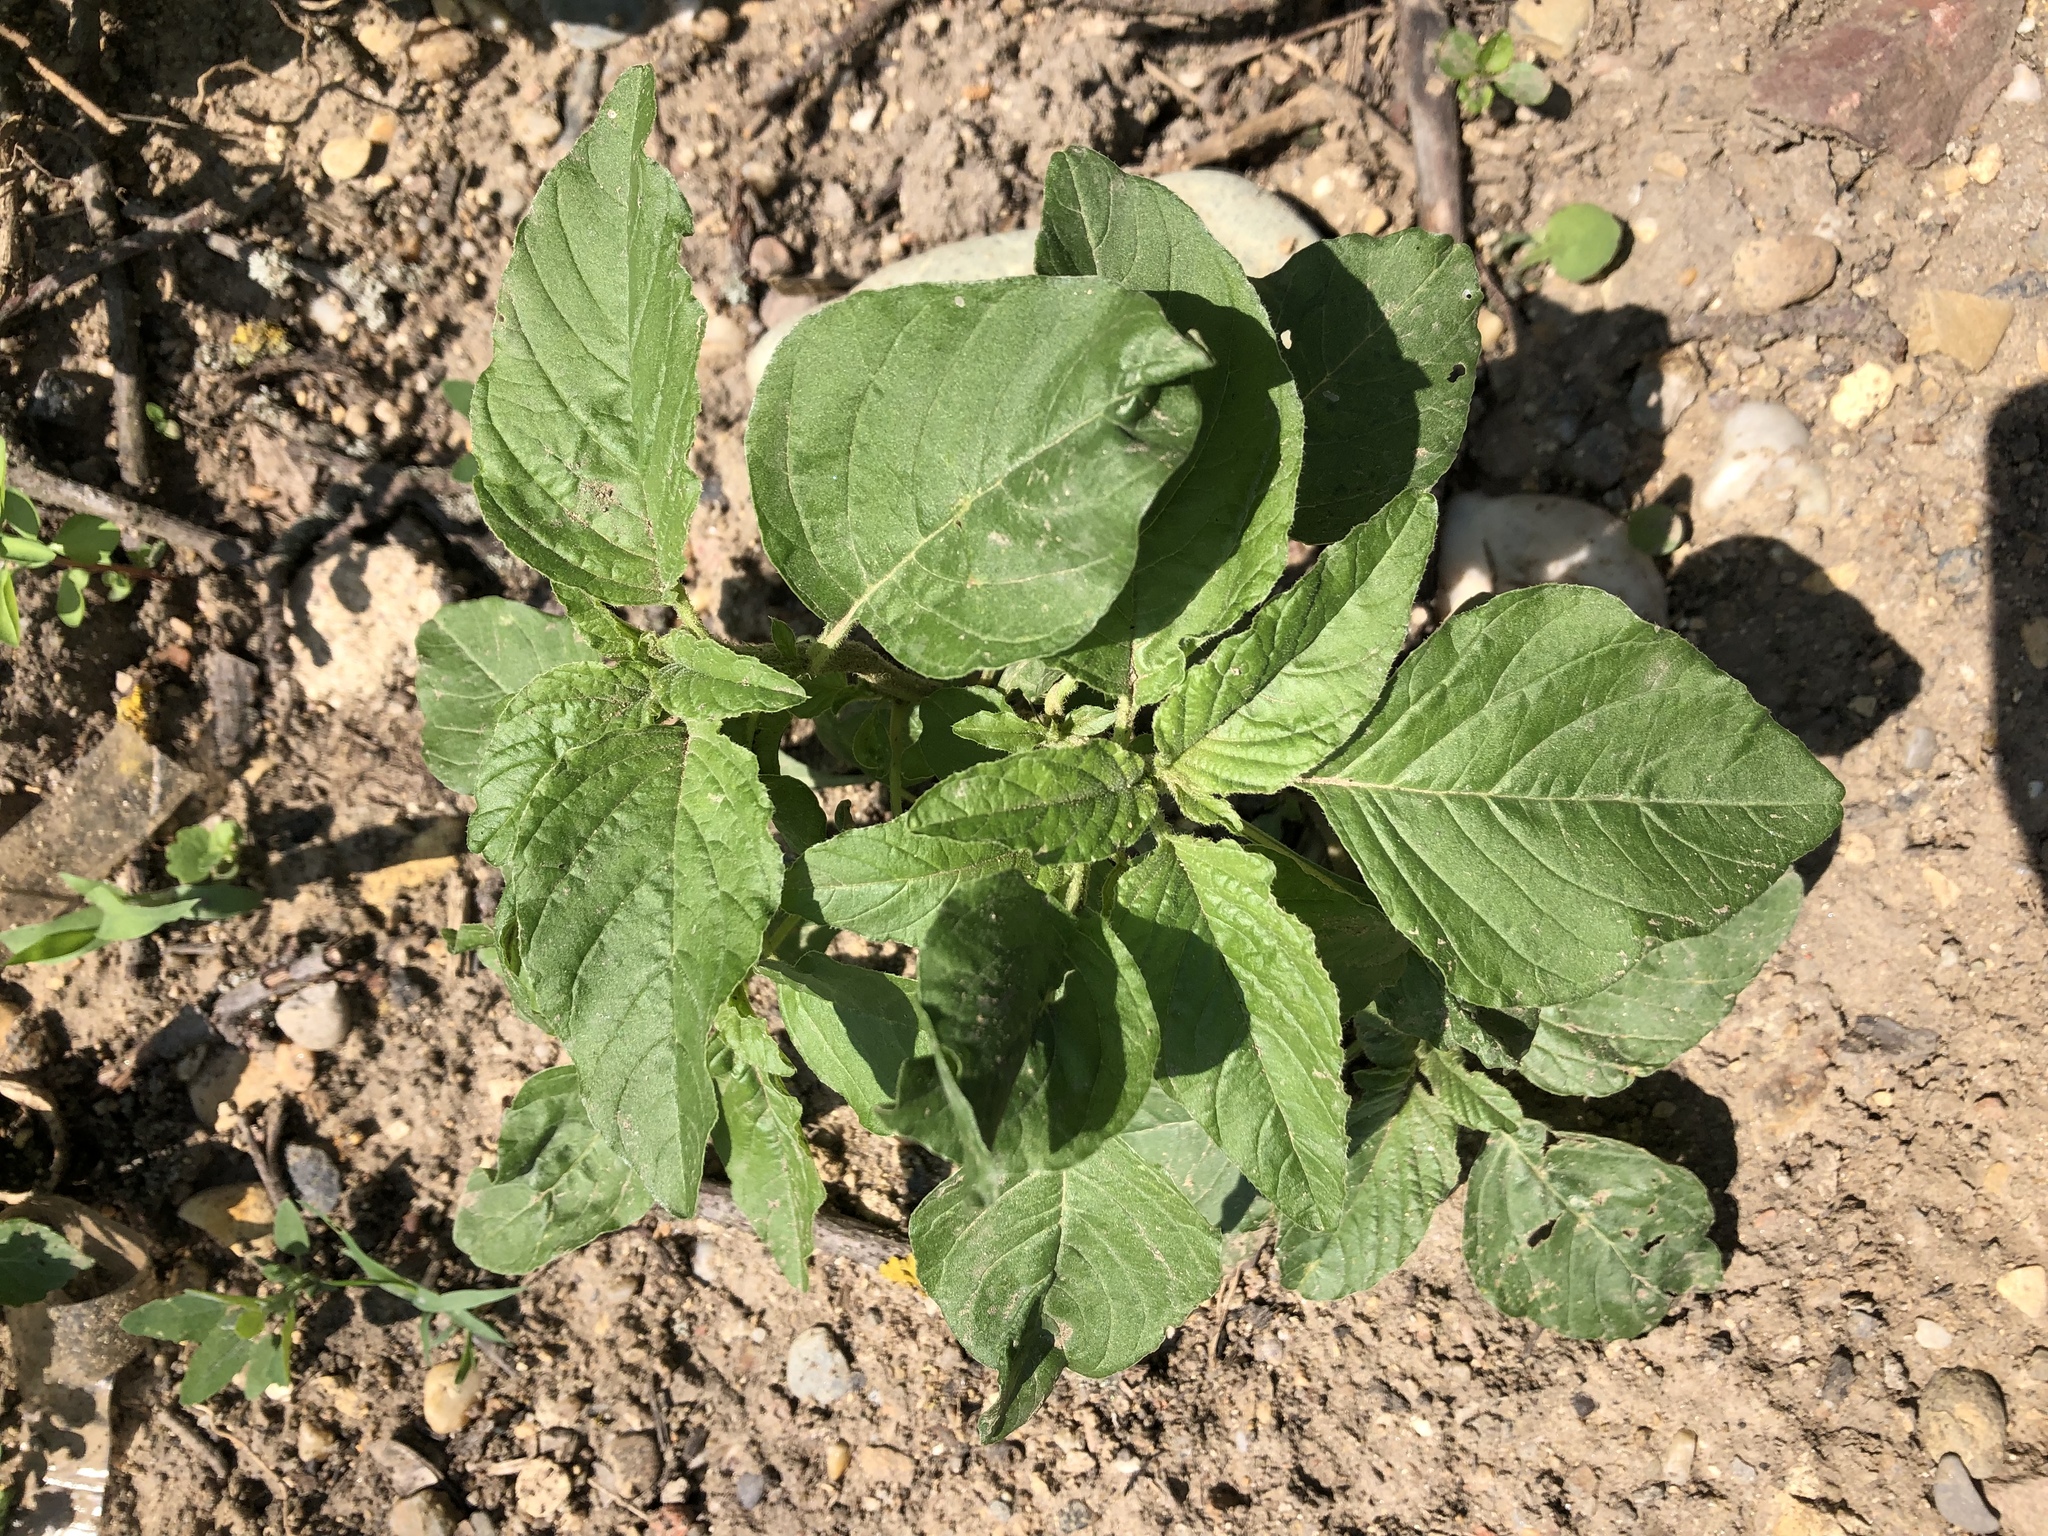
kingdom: Plantae
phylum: Tracheophyta
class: Magnoliopsida
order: Caryophyllales
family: Amaranthaceae
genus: Amaranthus
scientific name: Amaranthus retroflexus
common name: Redroot amaranth
